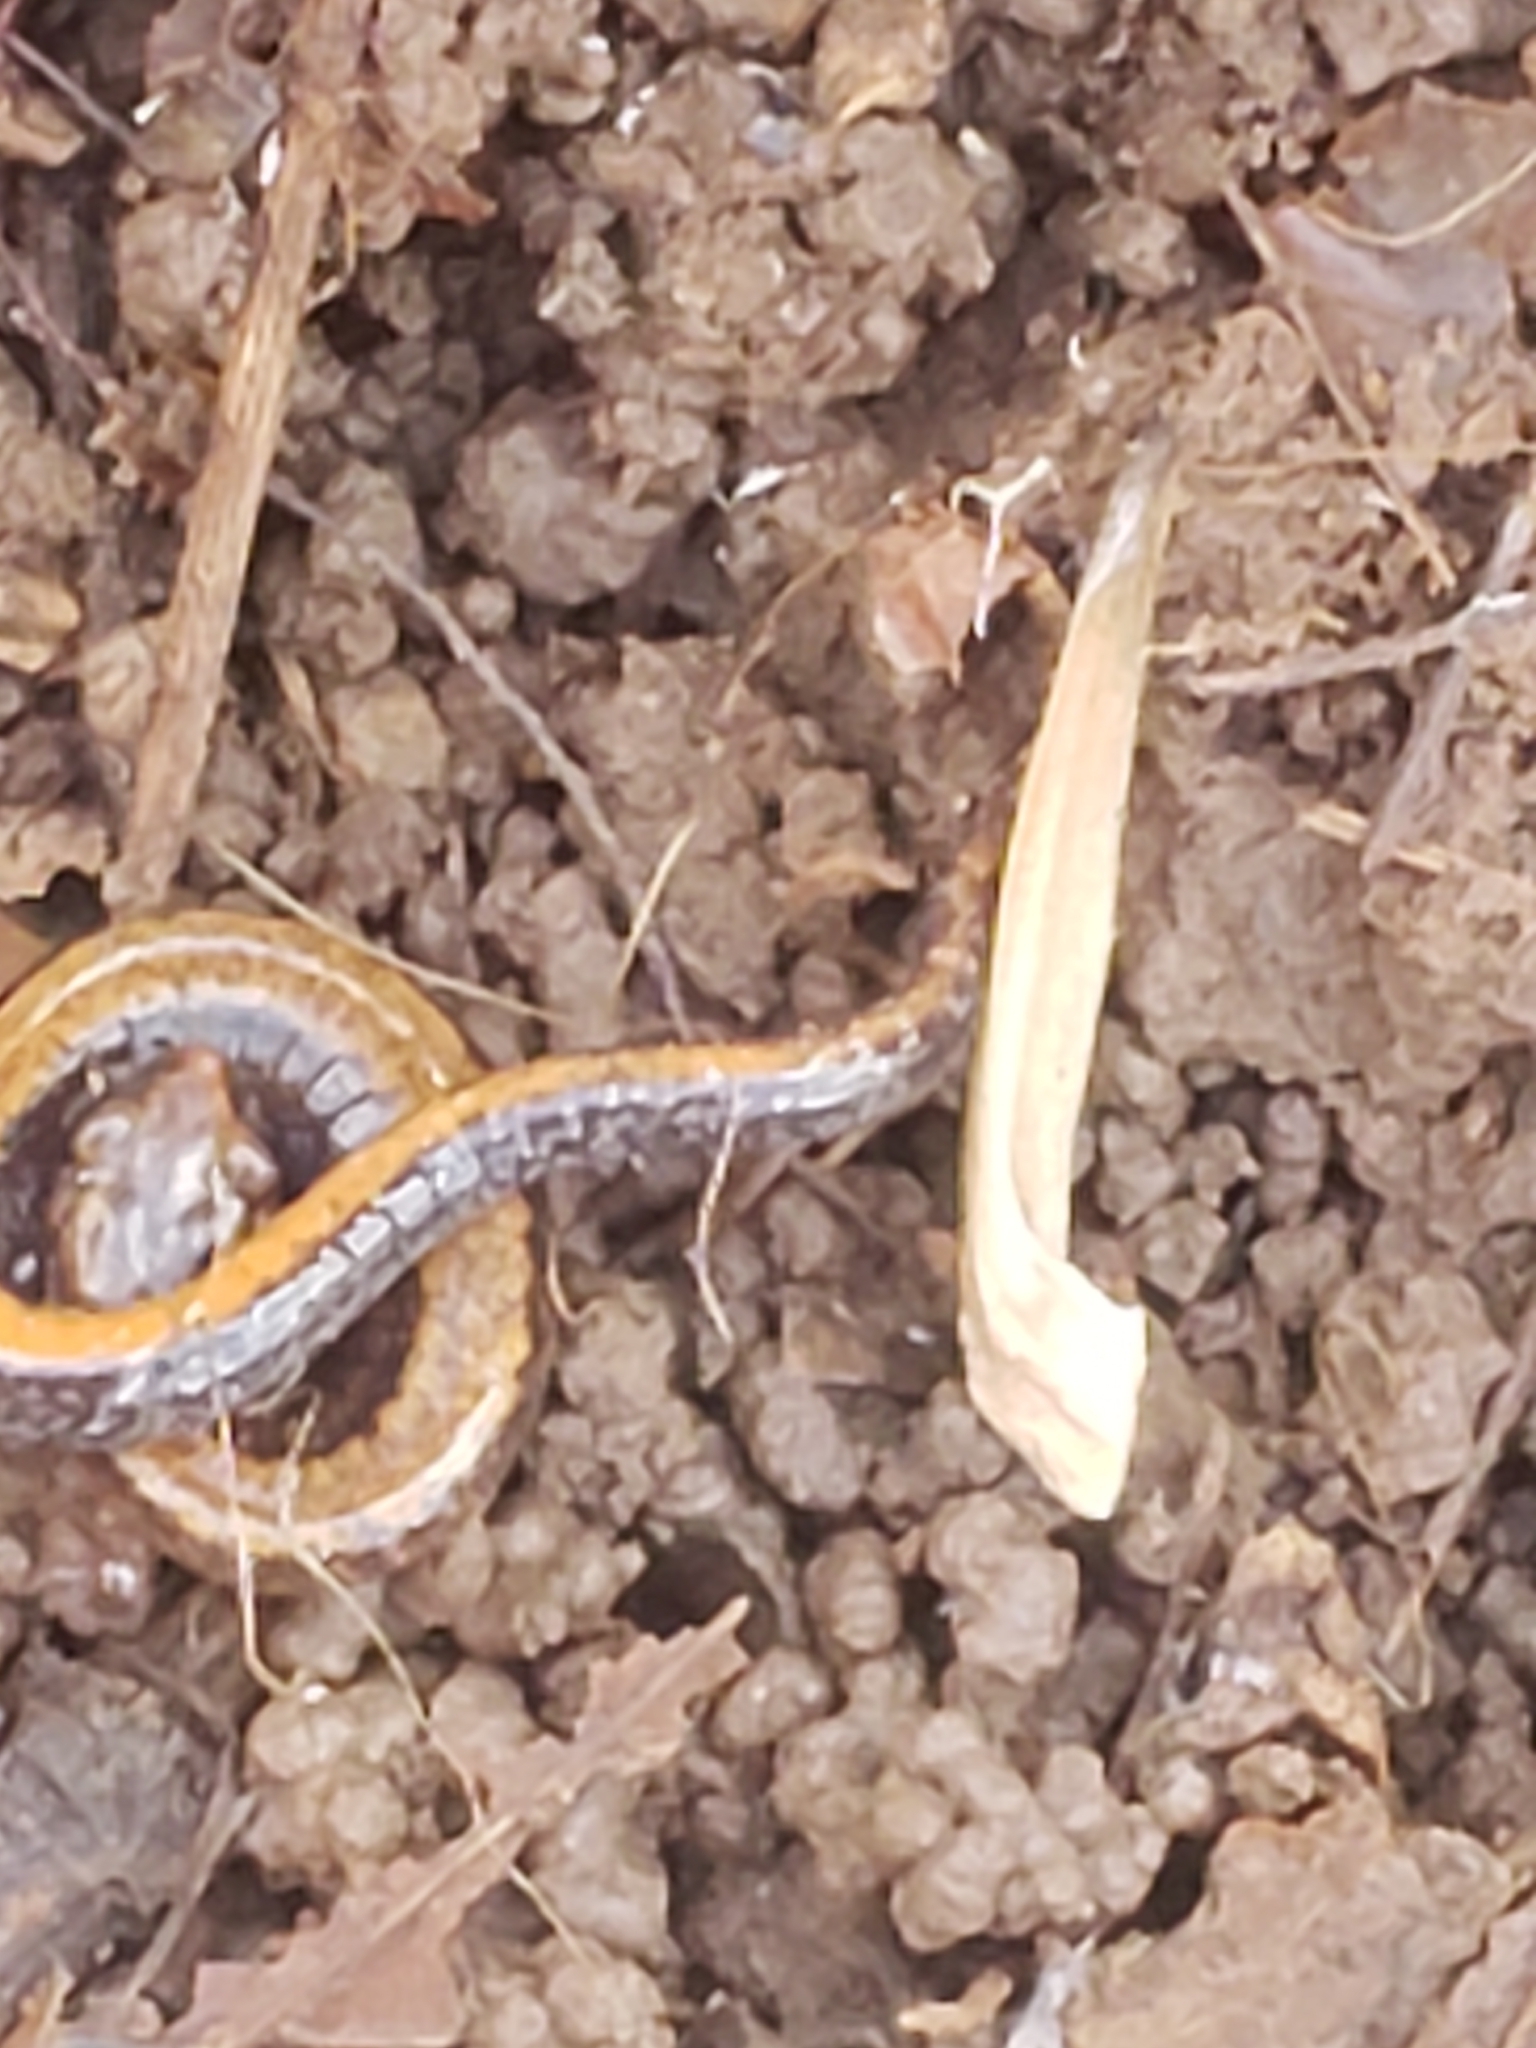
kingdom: Animalia
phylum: Chordata
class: Amphibia
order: Caudata
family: Plethodontidae
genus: Plethodon
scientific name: Plethodon cinereus
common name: Redback salamander
